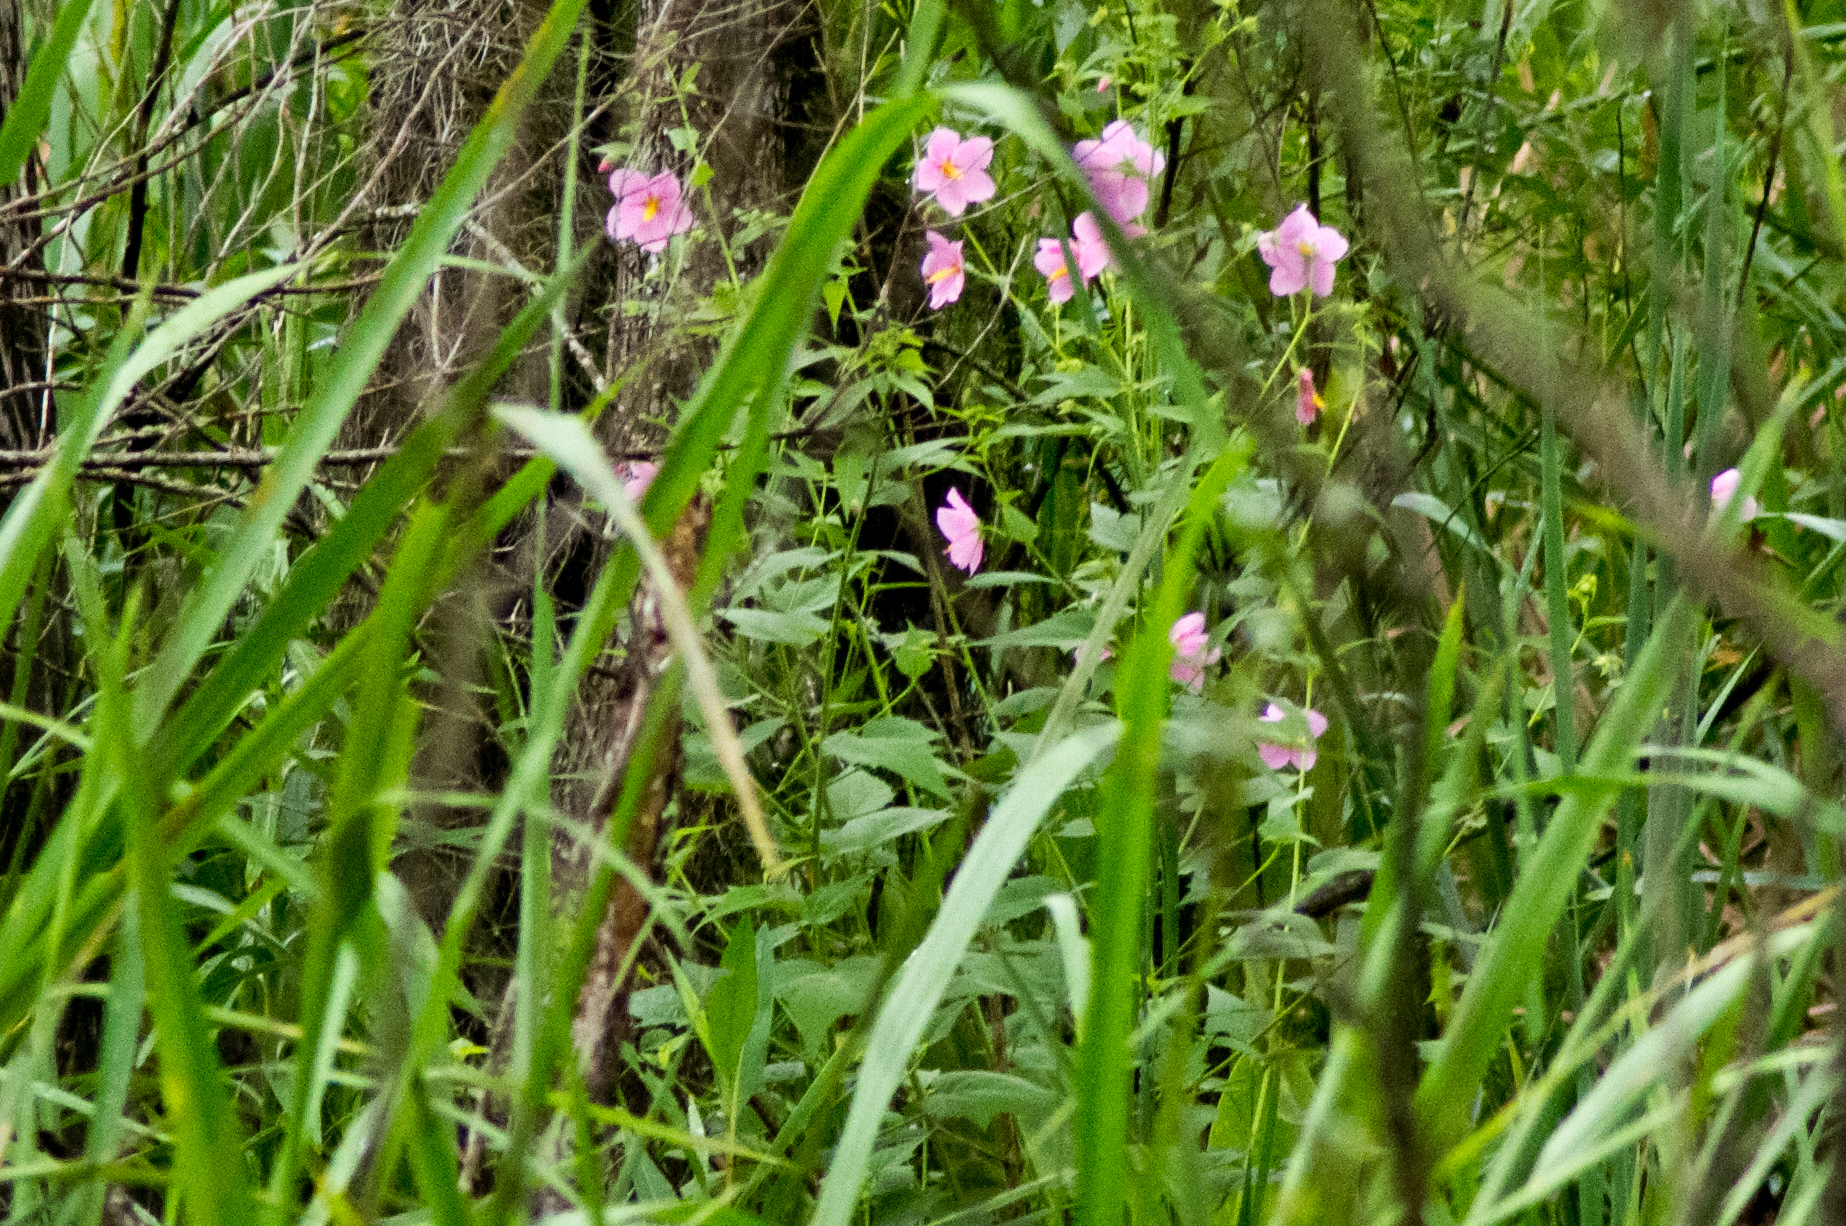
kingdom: Plantae
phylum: Tracheophyta
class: Magnoliopsida
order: Malvales
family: Malvaceae
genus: Kosteletzkya
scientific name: Kosteletzkya pentacarpos
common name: Virginia saltmarsh mallow
